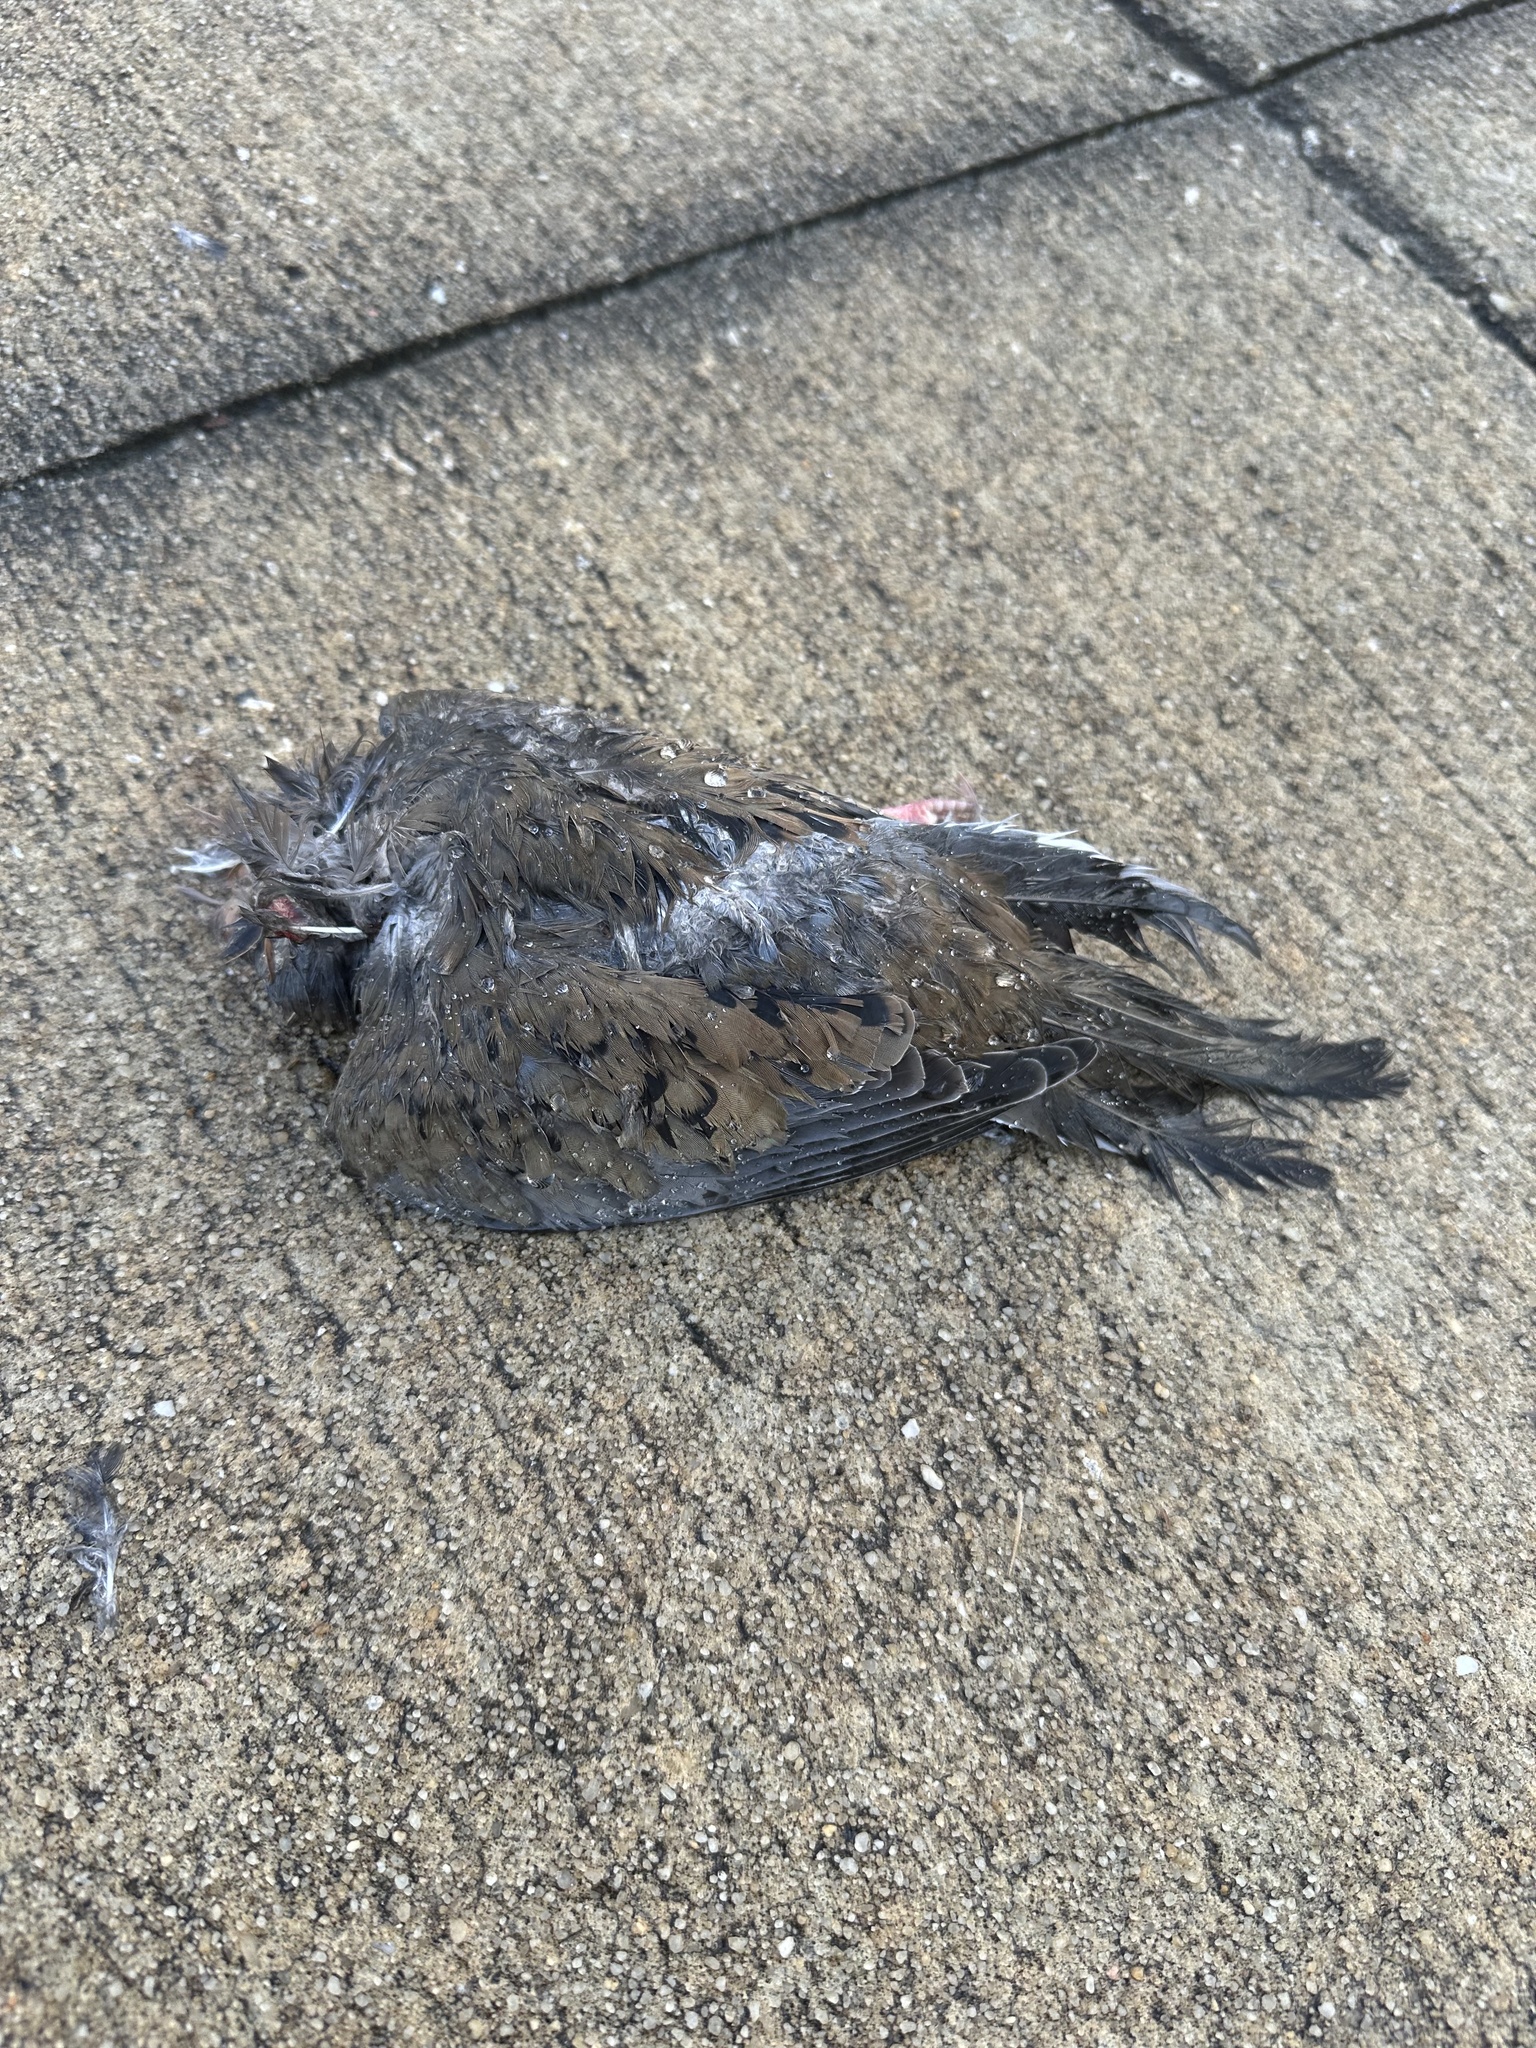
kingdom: Animalia
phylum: Chordata
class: Aves
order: Columbiformes
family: Columbidae
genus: Zenaida
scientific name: Zenaida macroura
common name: Mourning dove
